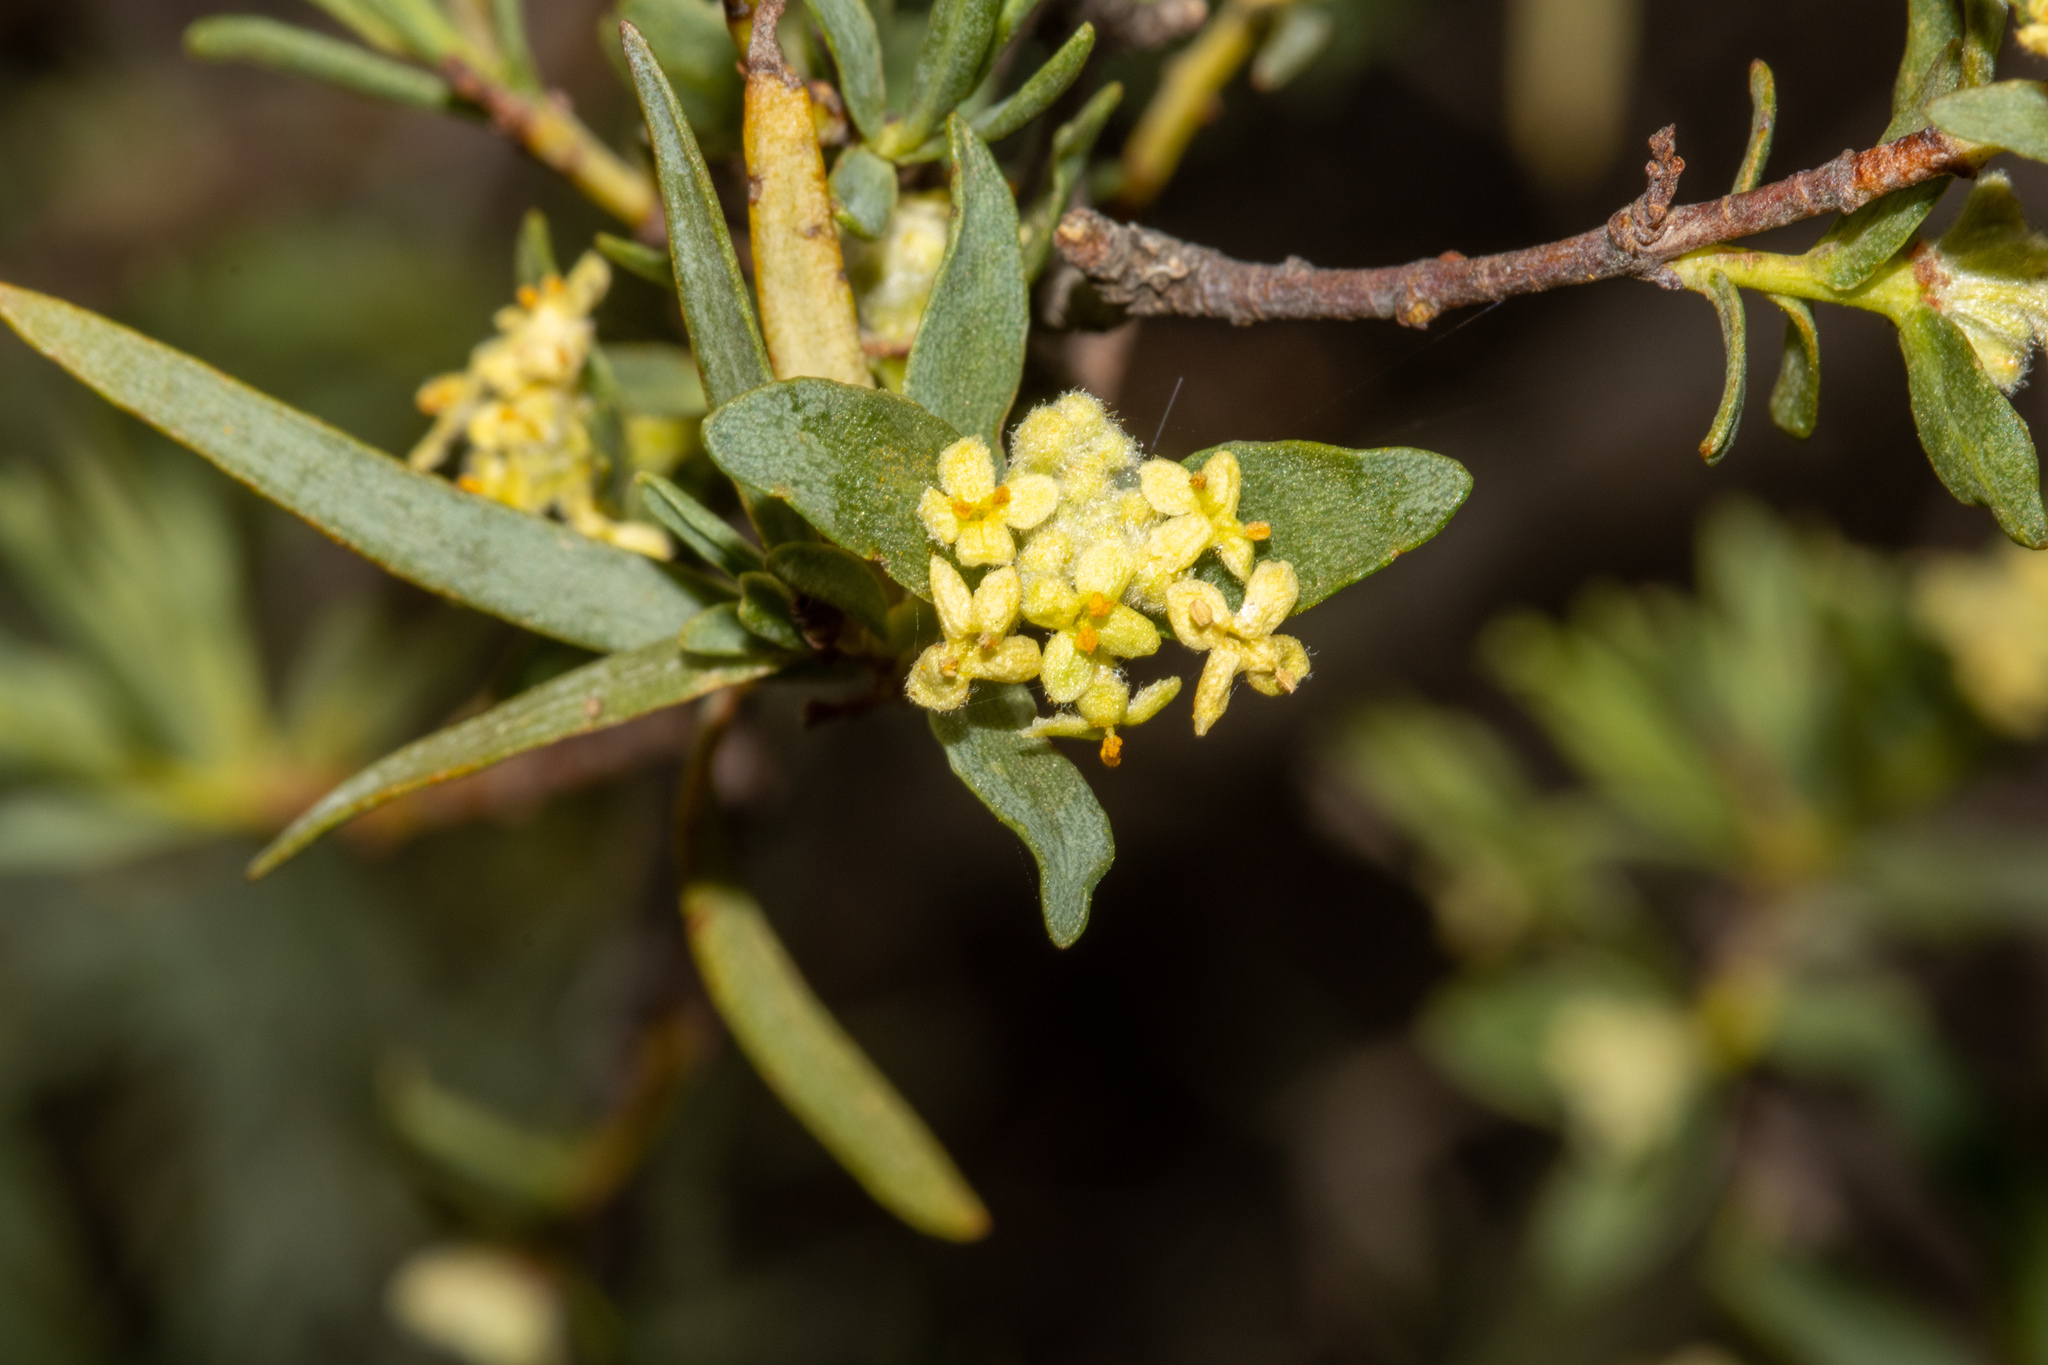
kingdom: Plantae
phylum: Tracheophyta
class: Magnoliopsida
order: Malvales
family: Thymelaeaceae
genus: Pimelea
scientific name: Pimelea microcephala
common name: Mallee riceflower
